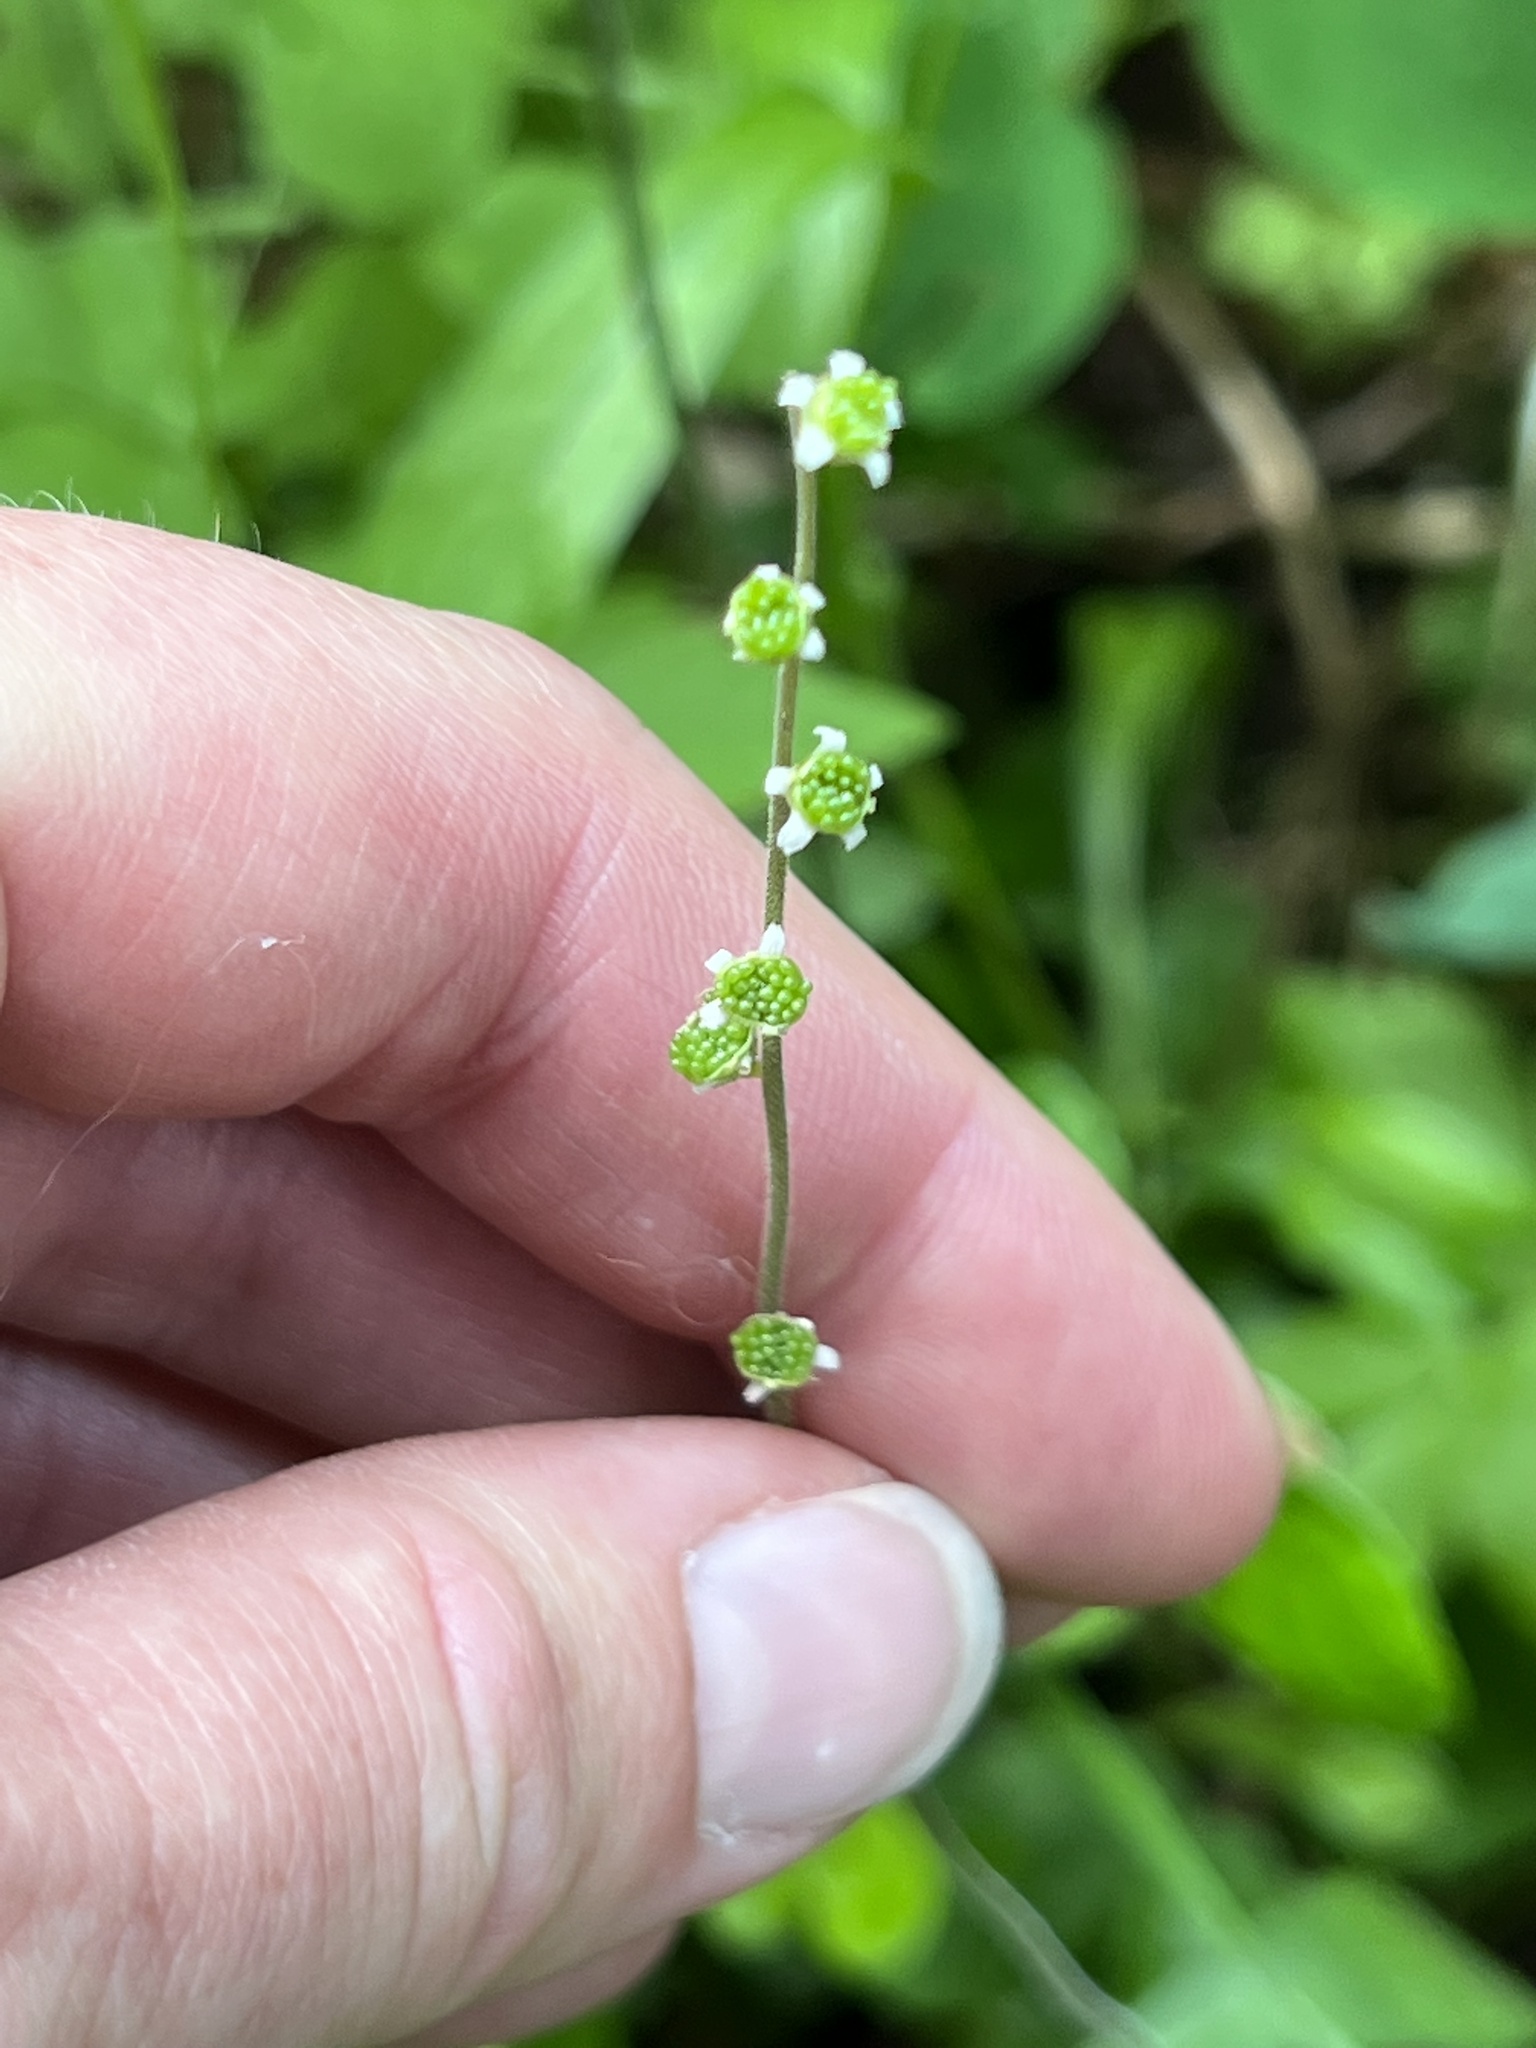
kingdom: Plantae
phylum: Tracheophyta
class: Magnoliopsida
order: Saxifragales
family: Saxifragaceae
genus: Ozomelis
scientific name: Ozomelis stauropetala
